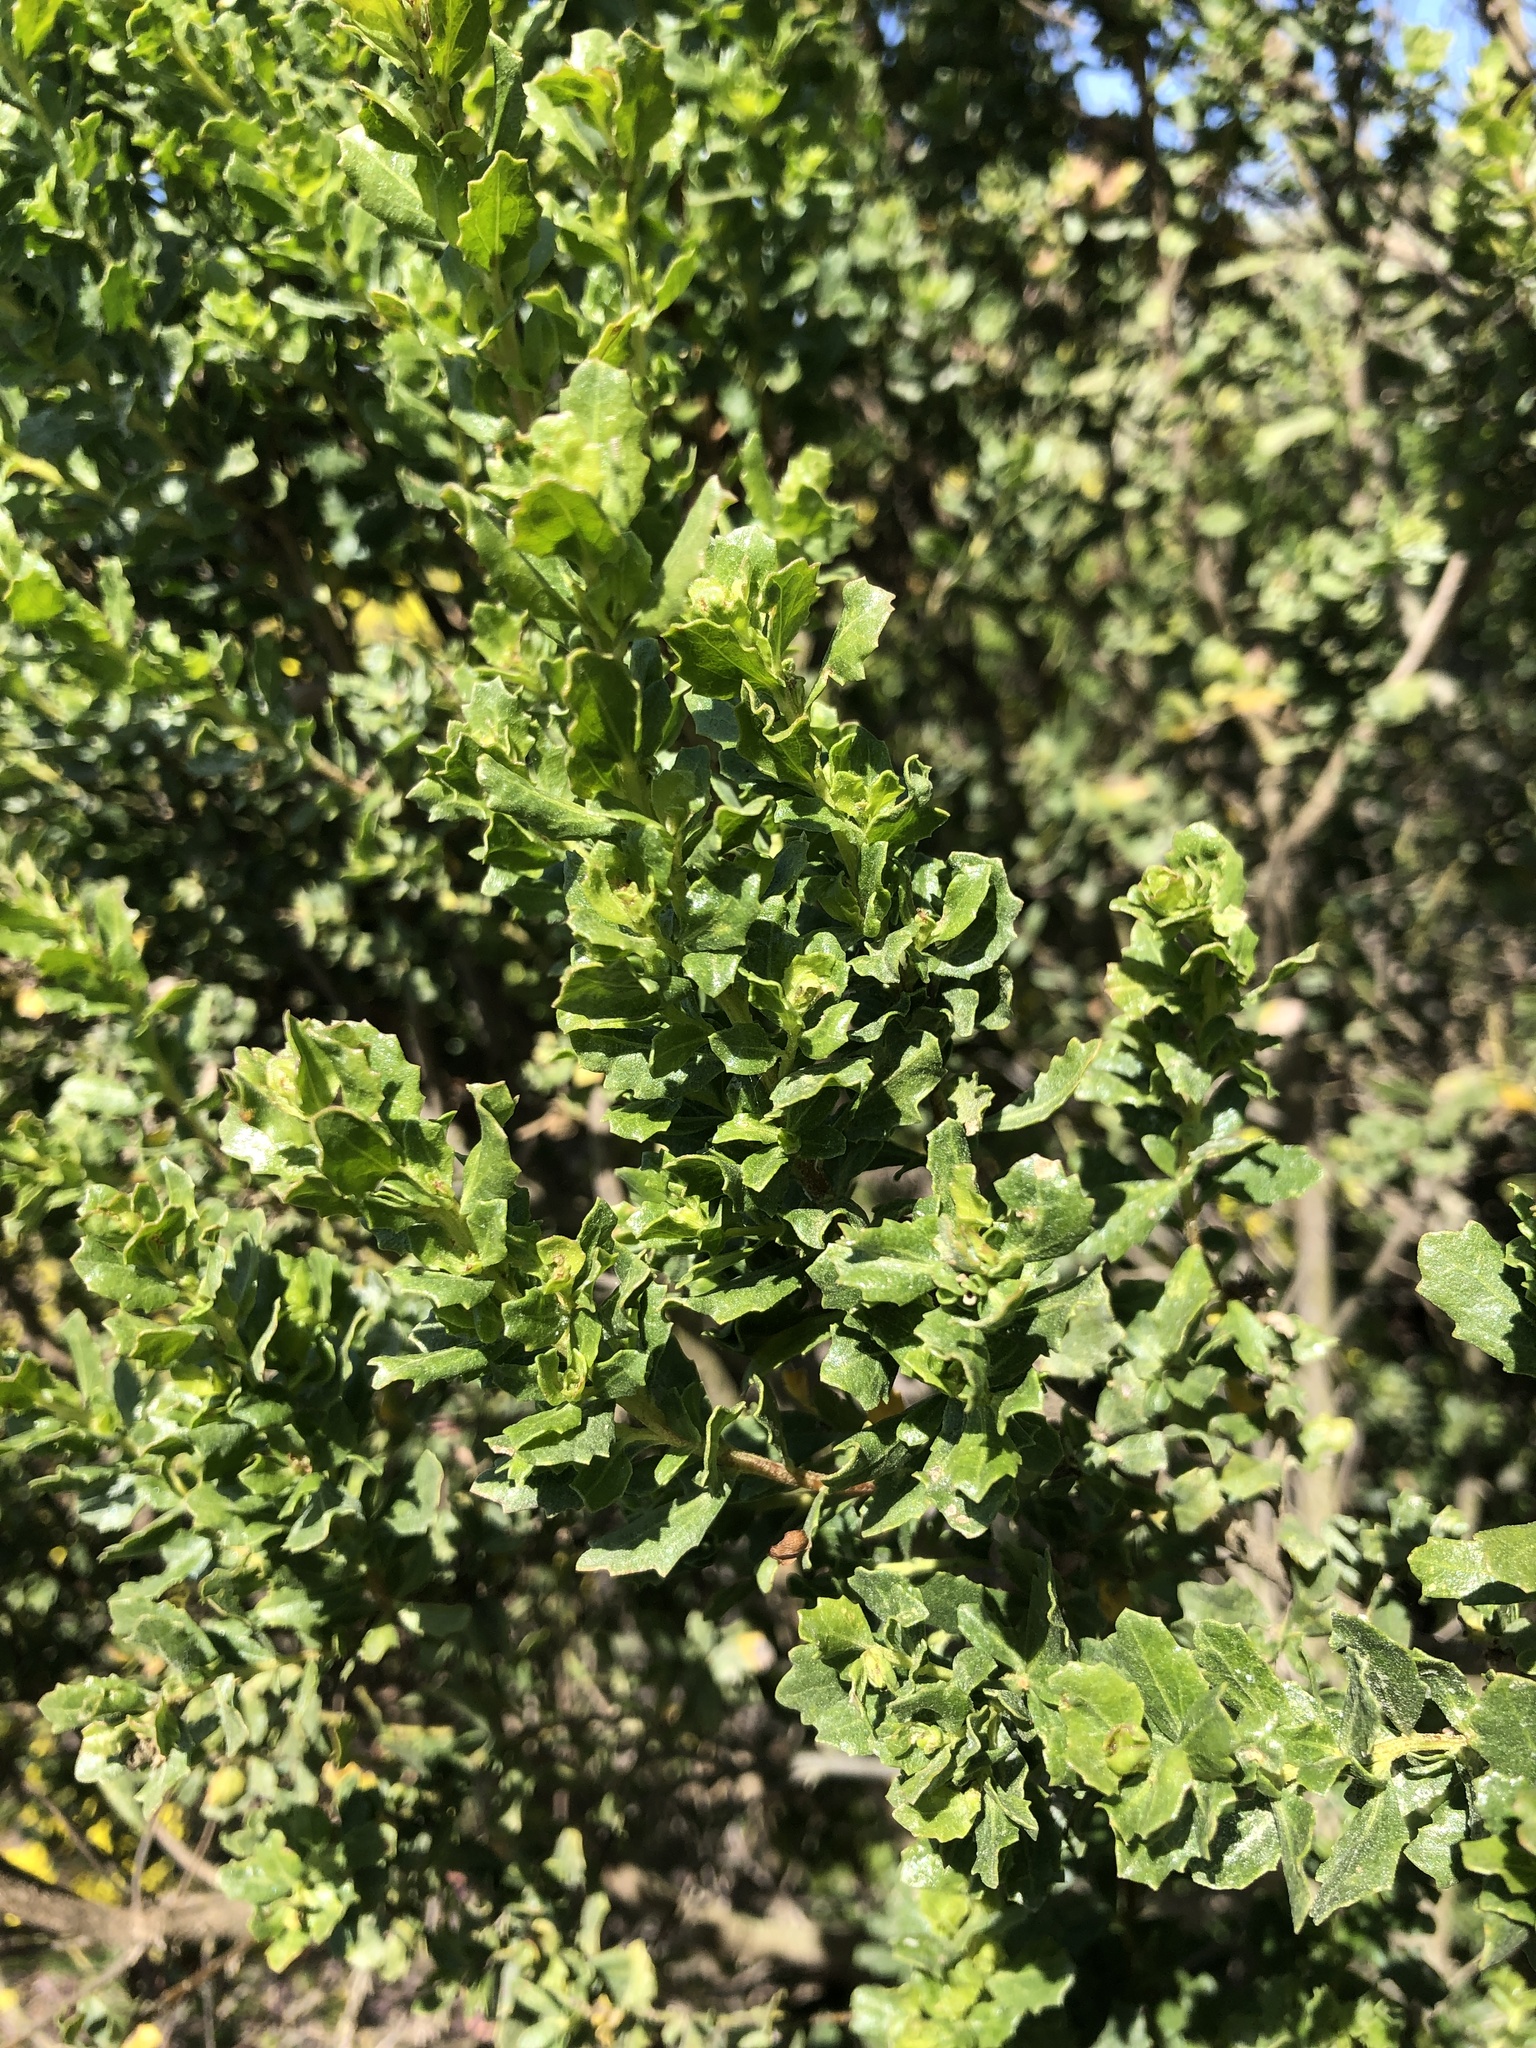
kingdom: Plantae
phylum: Tracheophyta
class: Magnoliopsida
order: Asterales
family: Asteraceae
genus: Baccharis
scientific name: Baccharis pilularis
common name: Coyotebrush
